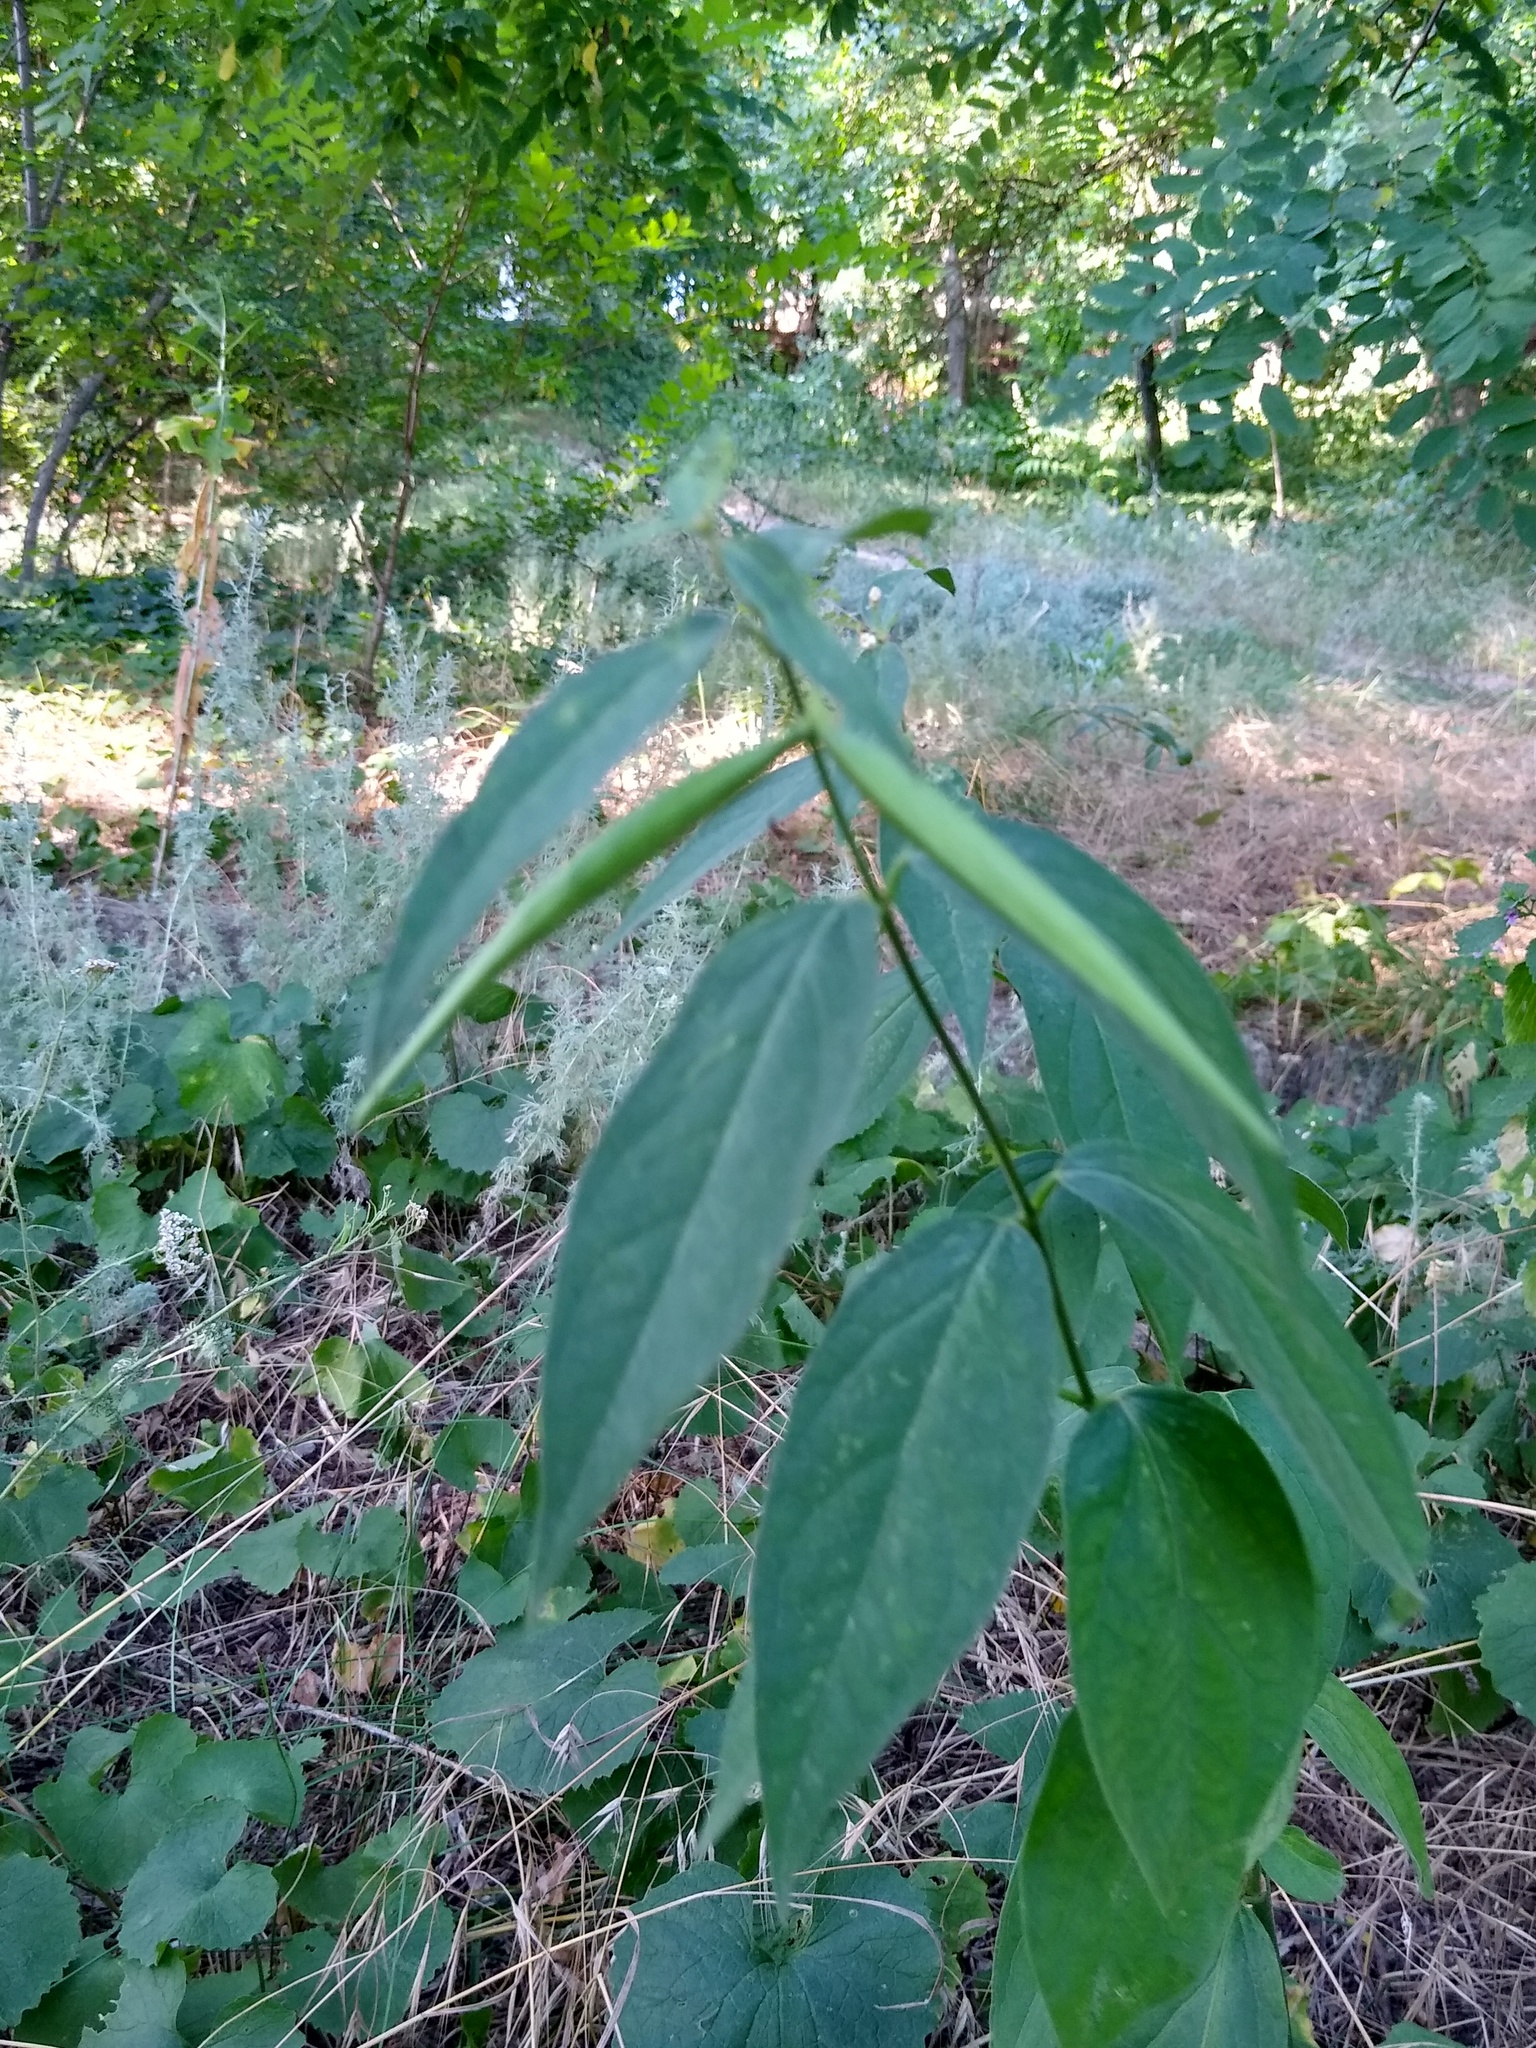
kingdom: Plantae
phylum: Tracheophyta
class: Magnoliopsida
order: Gentianales
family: Apocynaceae
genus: Vincetoxicum
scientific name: Vincetoxicum hirundinaria
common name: White swallowwort
